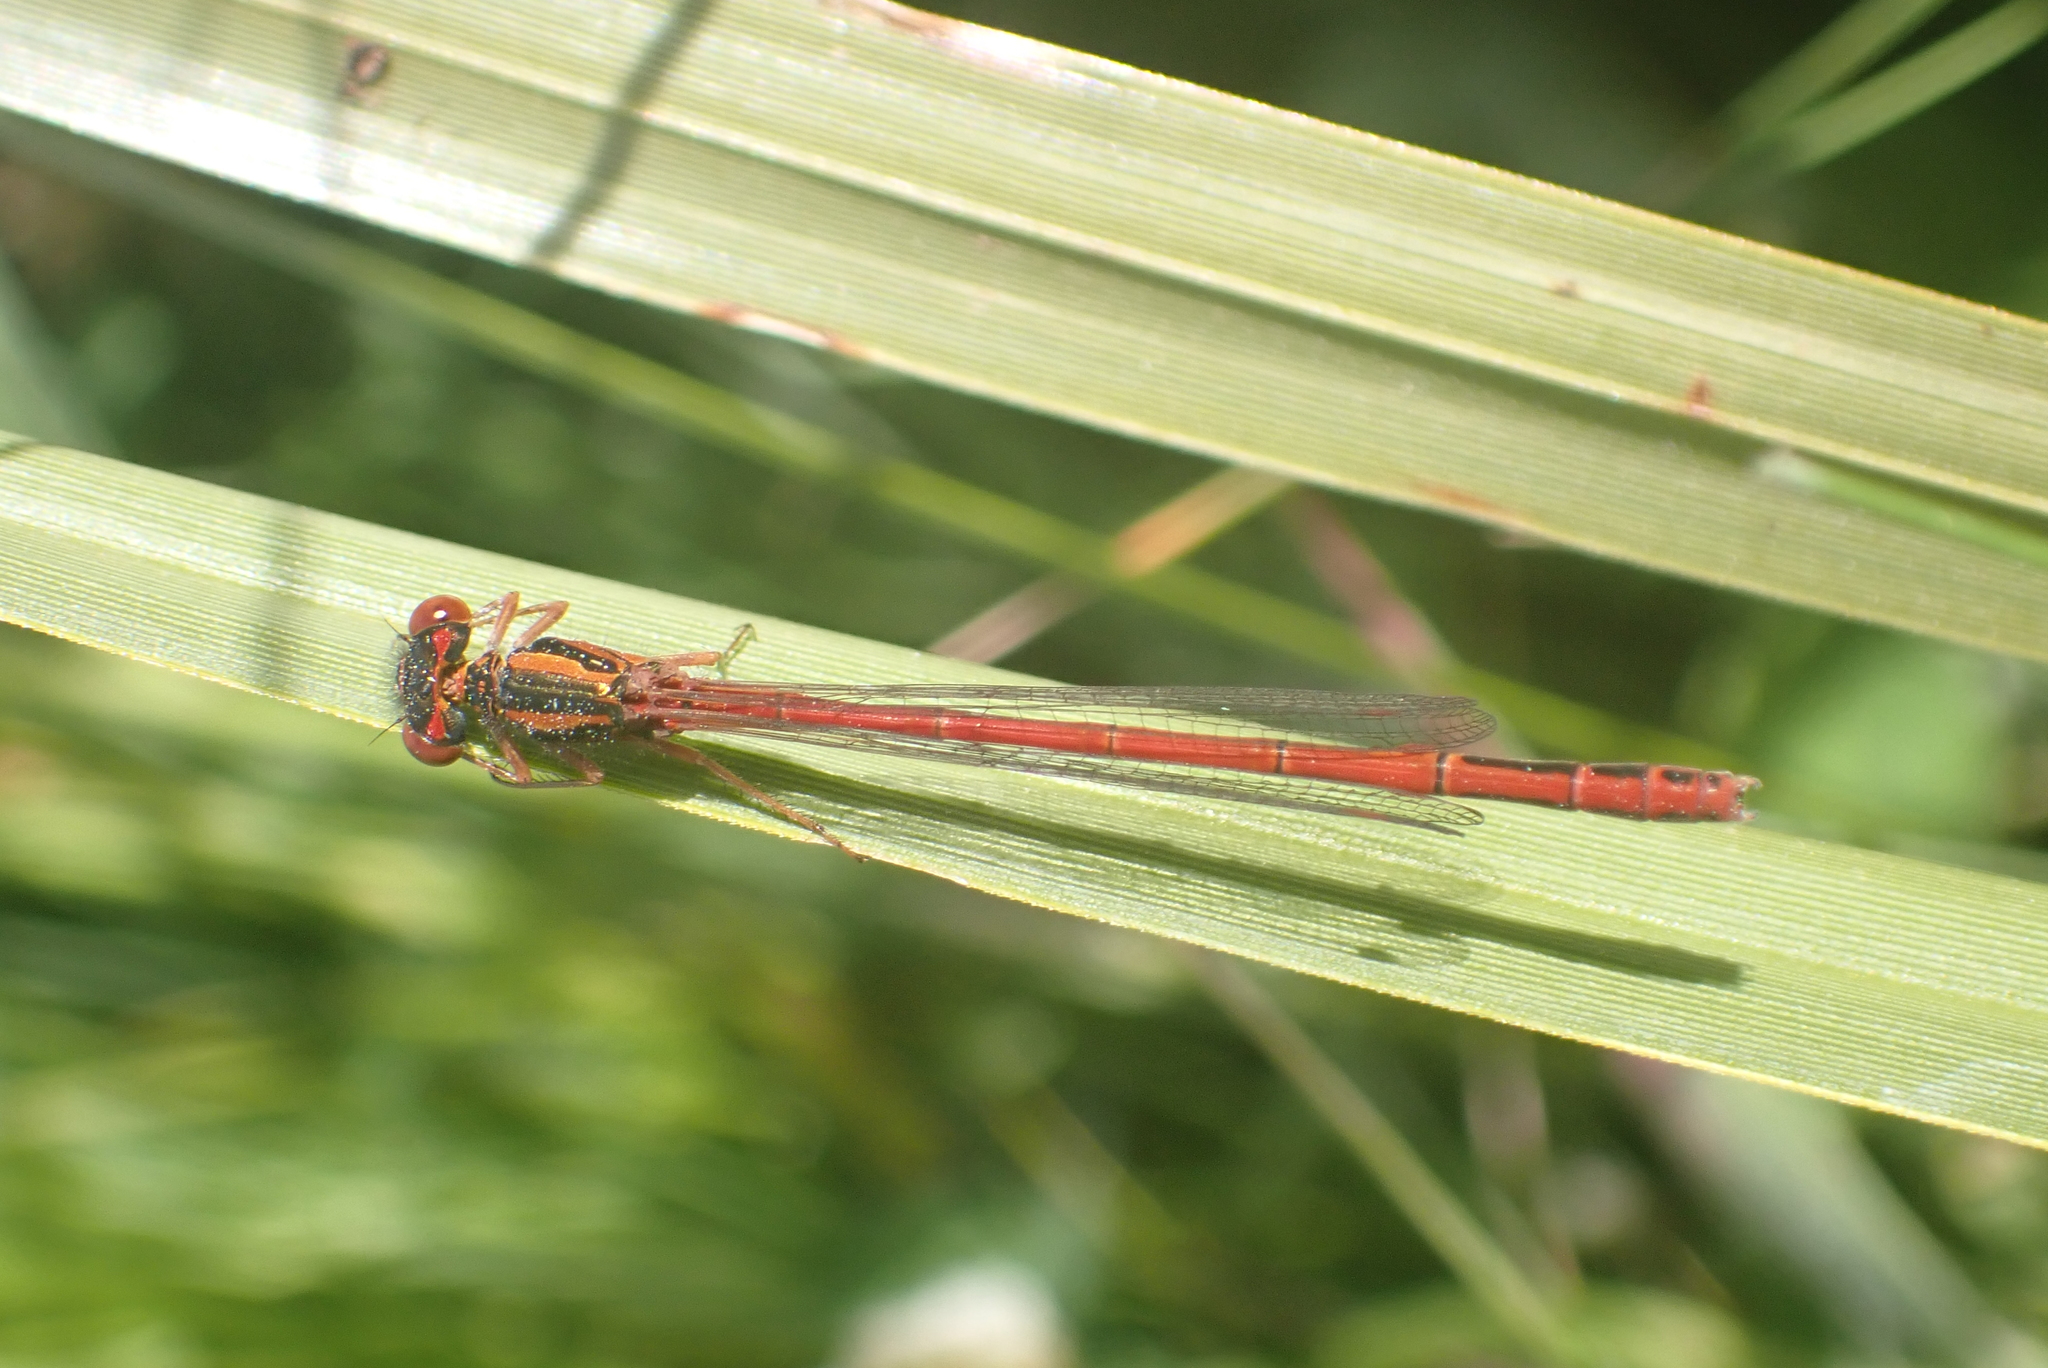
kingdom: Animalia
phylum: Arthropoda
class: Insecta
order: Odonata
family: Coenagrionidae
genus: Xanthocnemis
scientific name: Xanthocnemis zealandica
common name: Common redcoat damselfly
